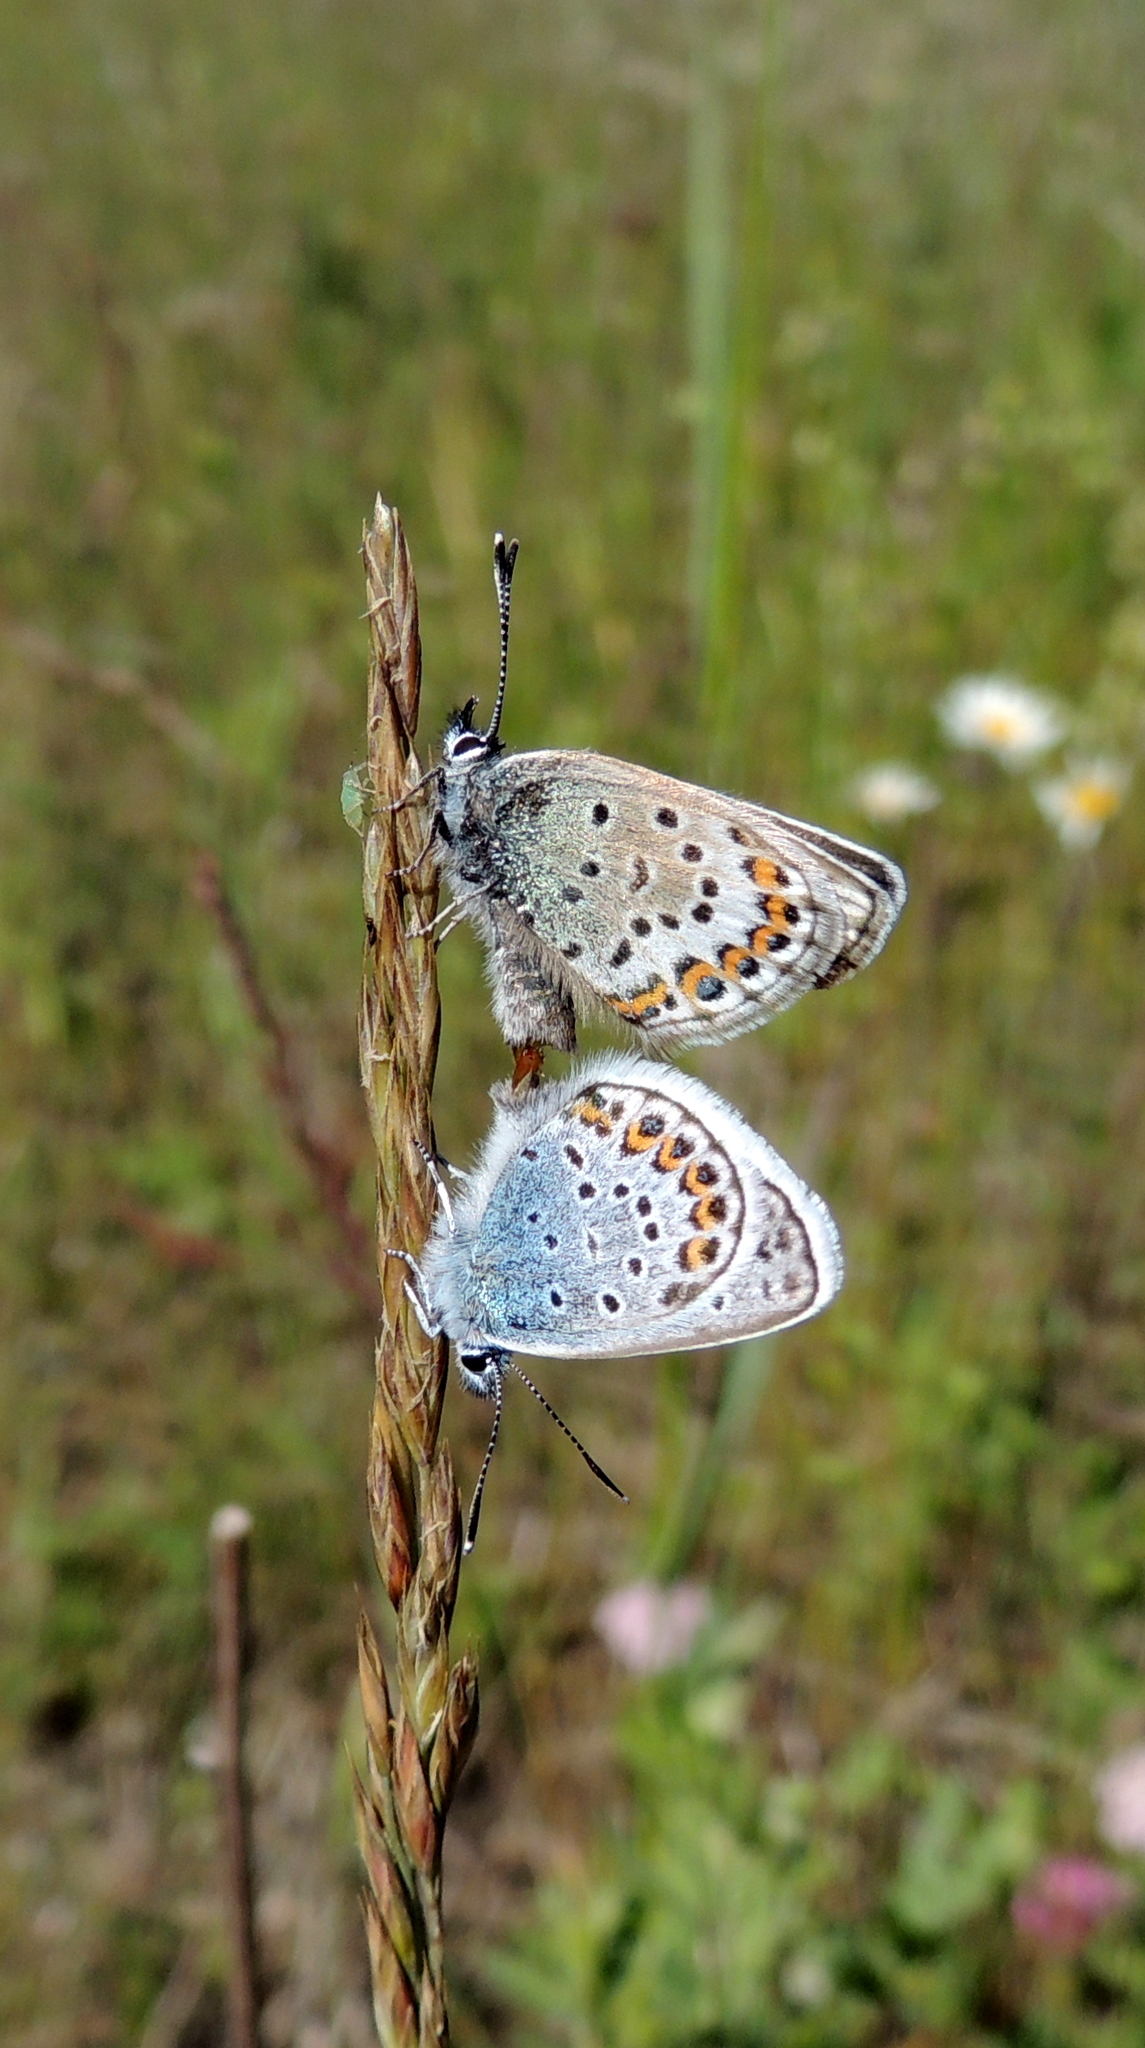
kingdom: Animalia
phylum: Arthropoda
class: Insecta
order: Lepidoptera
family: Lycaenidae
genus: Plebejus
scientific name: Plebejus argus
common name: Silver-studded blue
